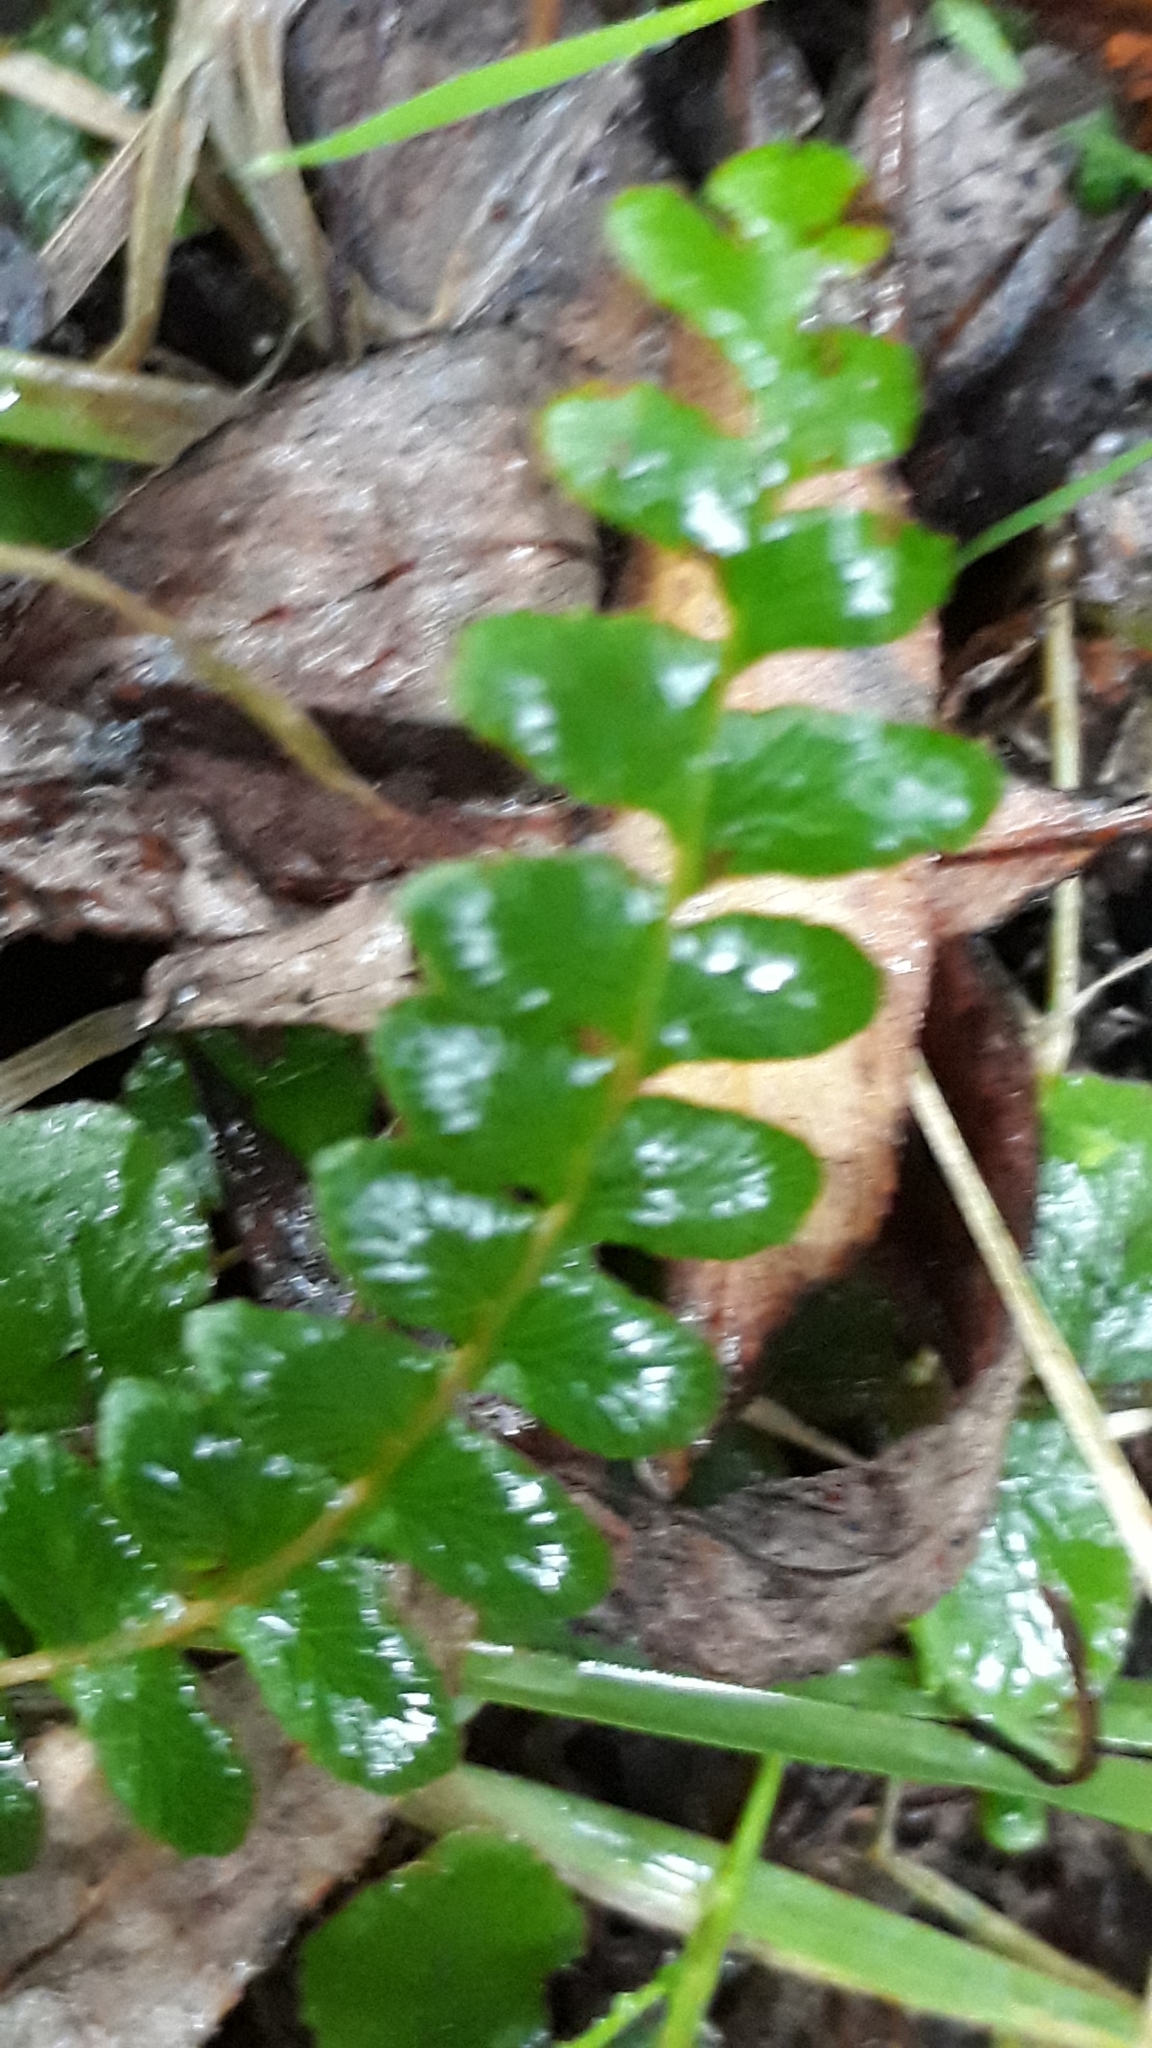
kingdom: Plantae
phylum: Tracheophyta
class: Polypodiopsida
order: Polypodiales
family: Blechnaceae
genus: Cranfillia
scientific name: Cranfillia fluviatilis
